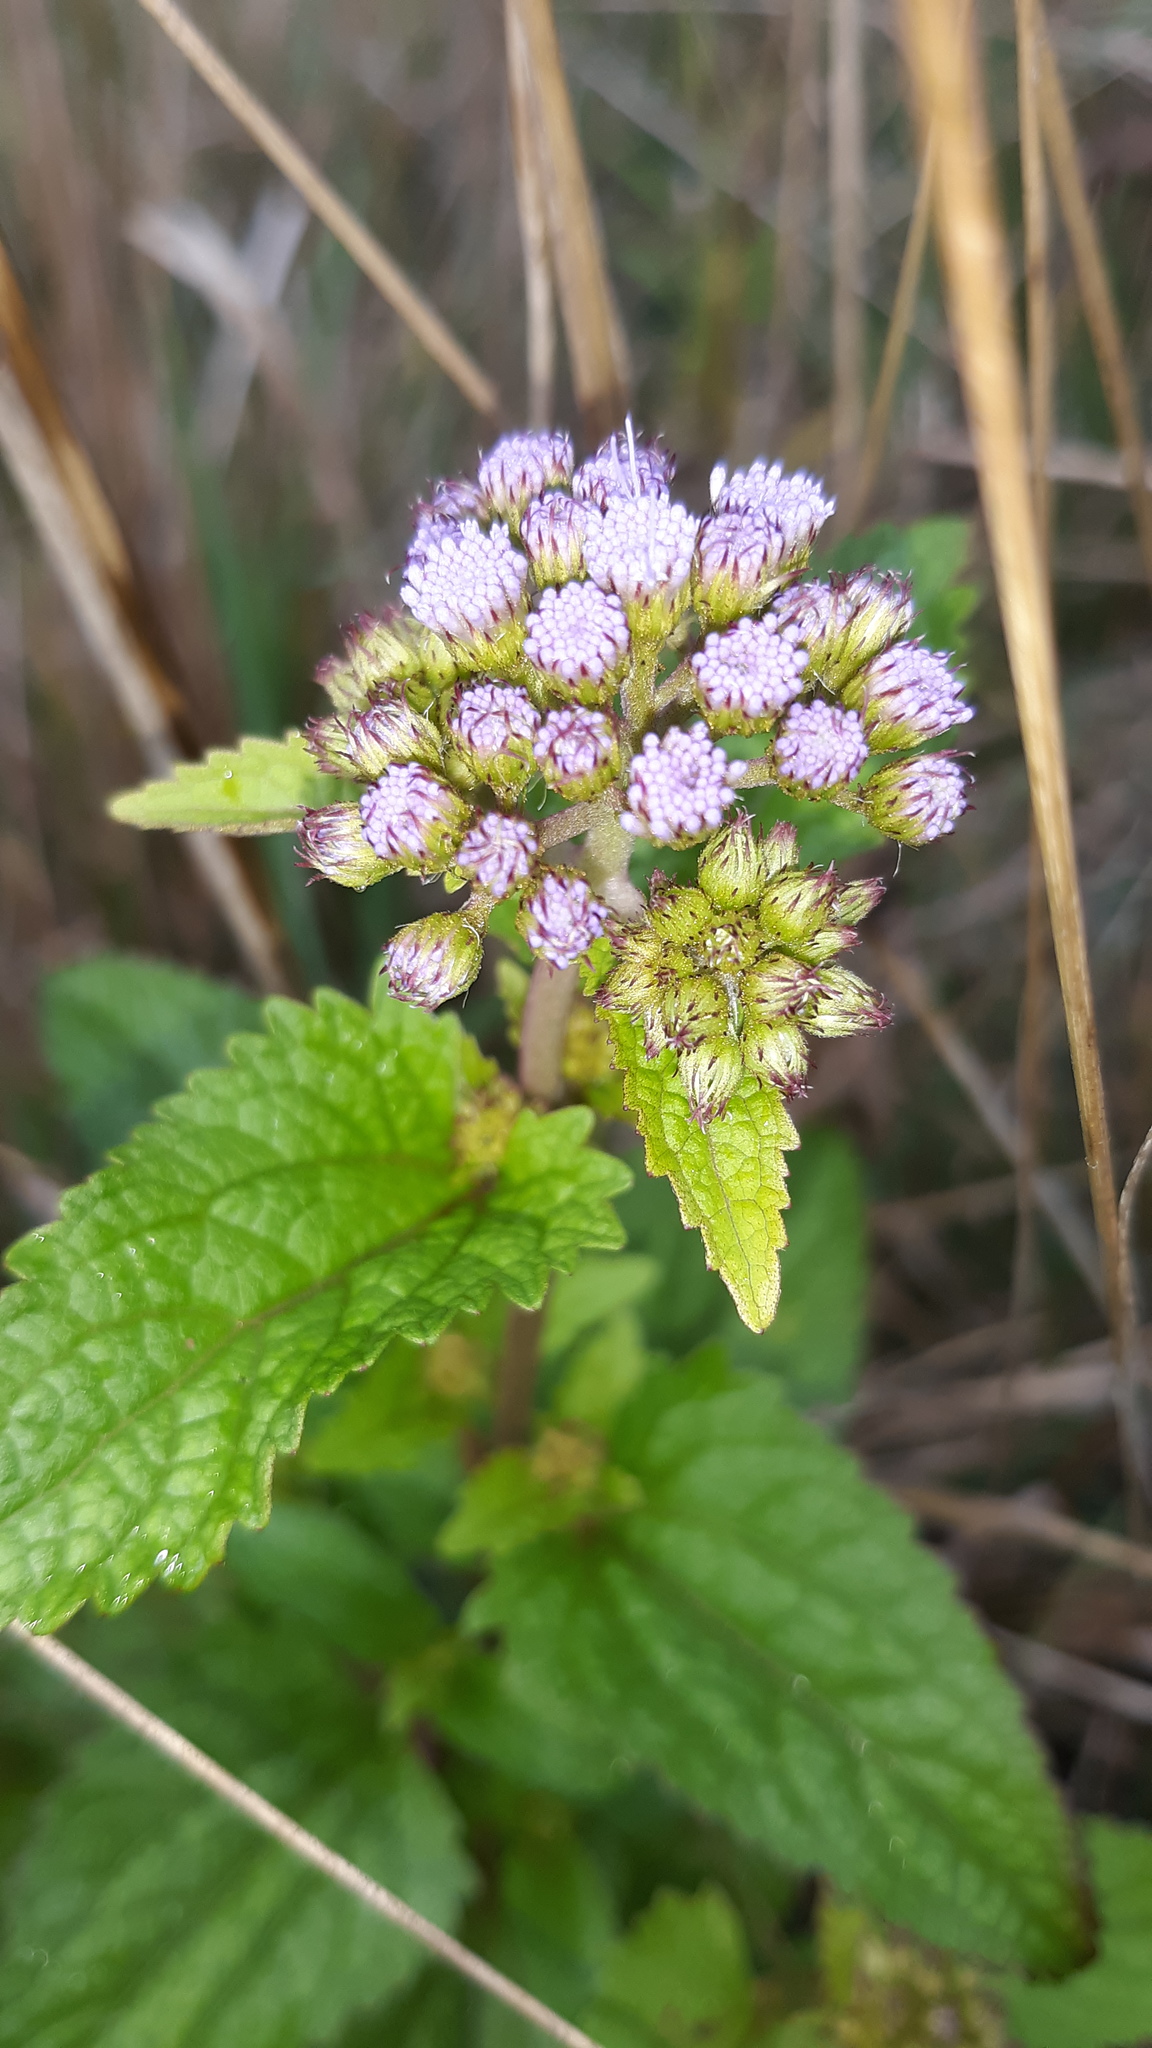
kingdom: Plantae
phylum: Tracheophyta
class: Magnoliopsida
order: Asterales
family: Asteraceae
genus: Conoclinium
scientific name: Conoclinium coelestinum
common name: Blue mistflower
